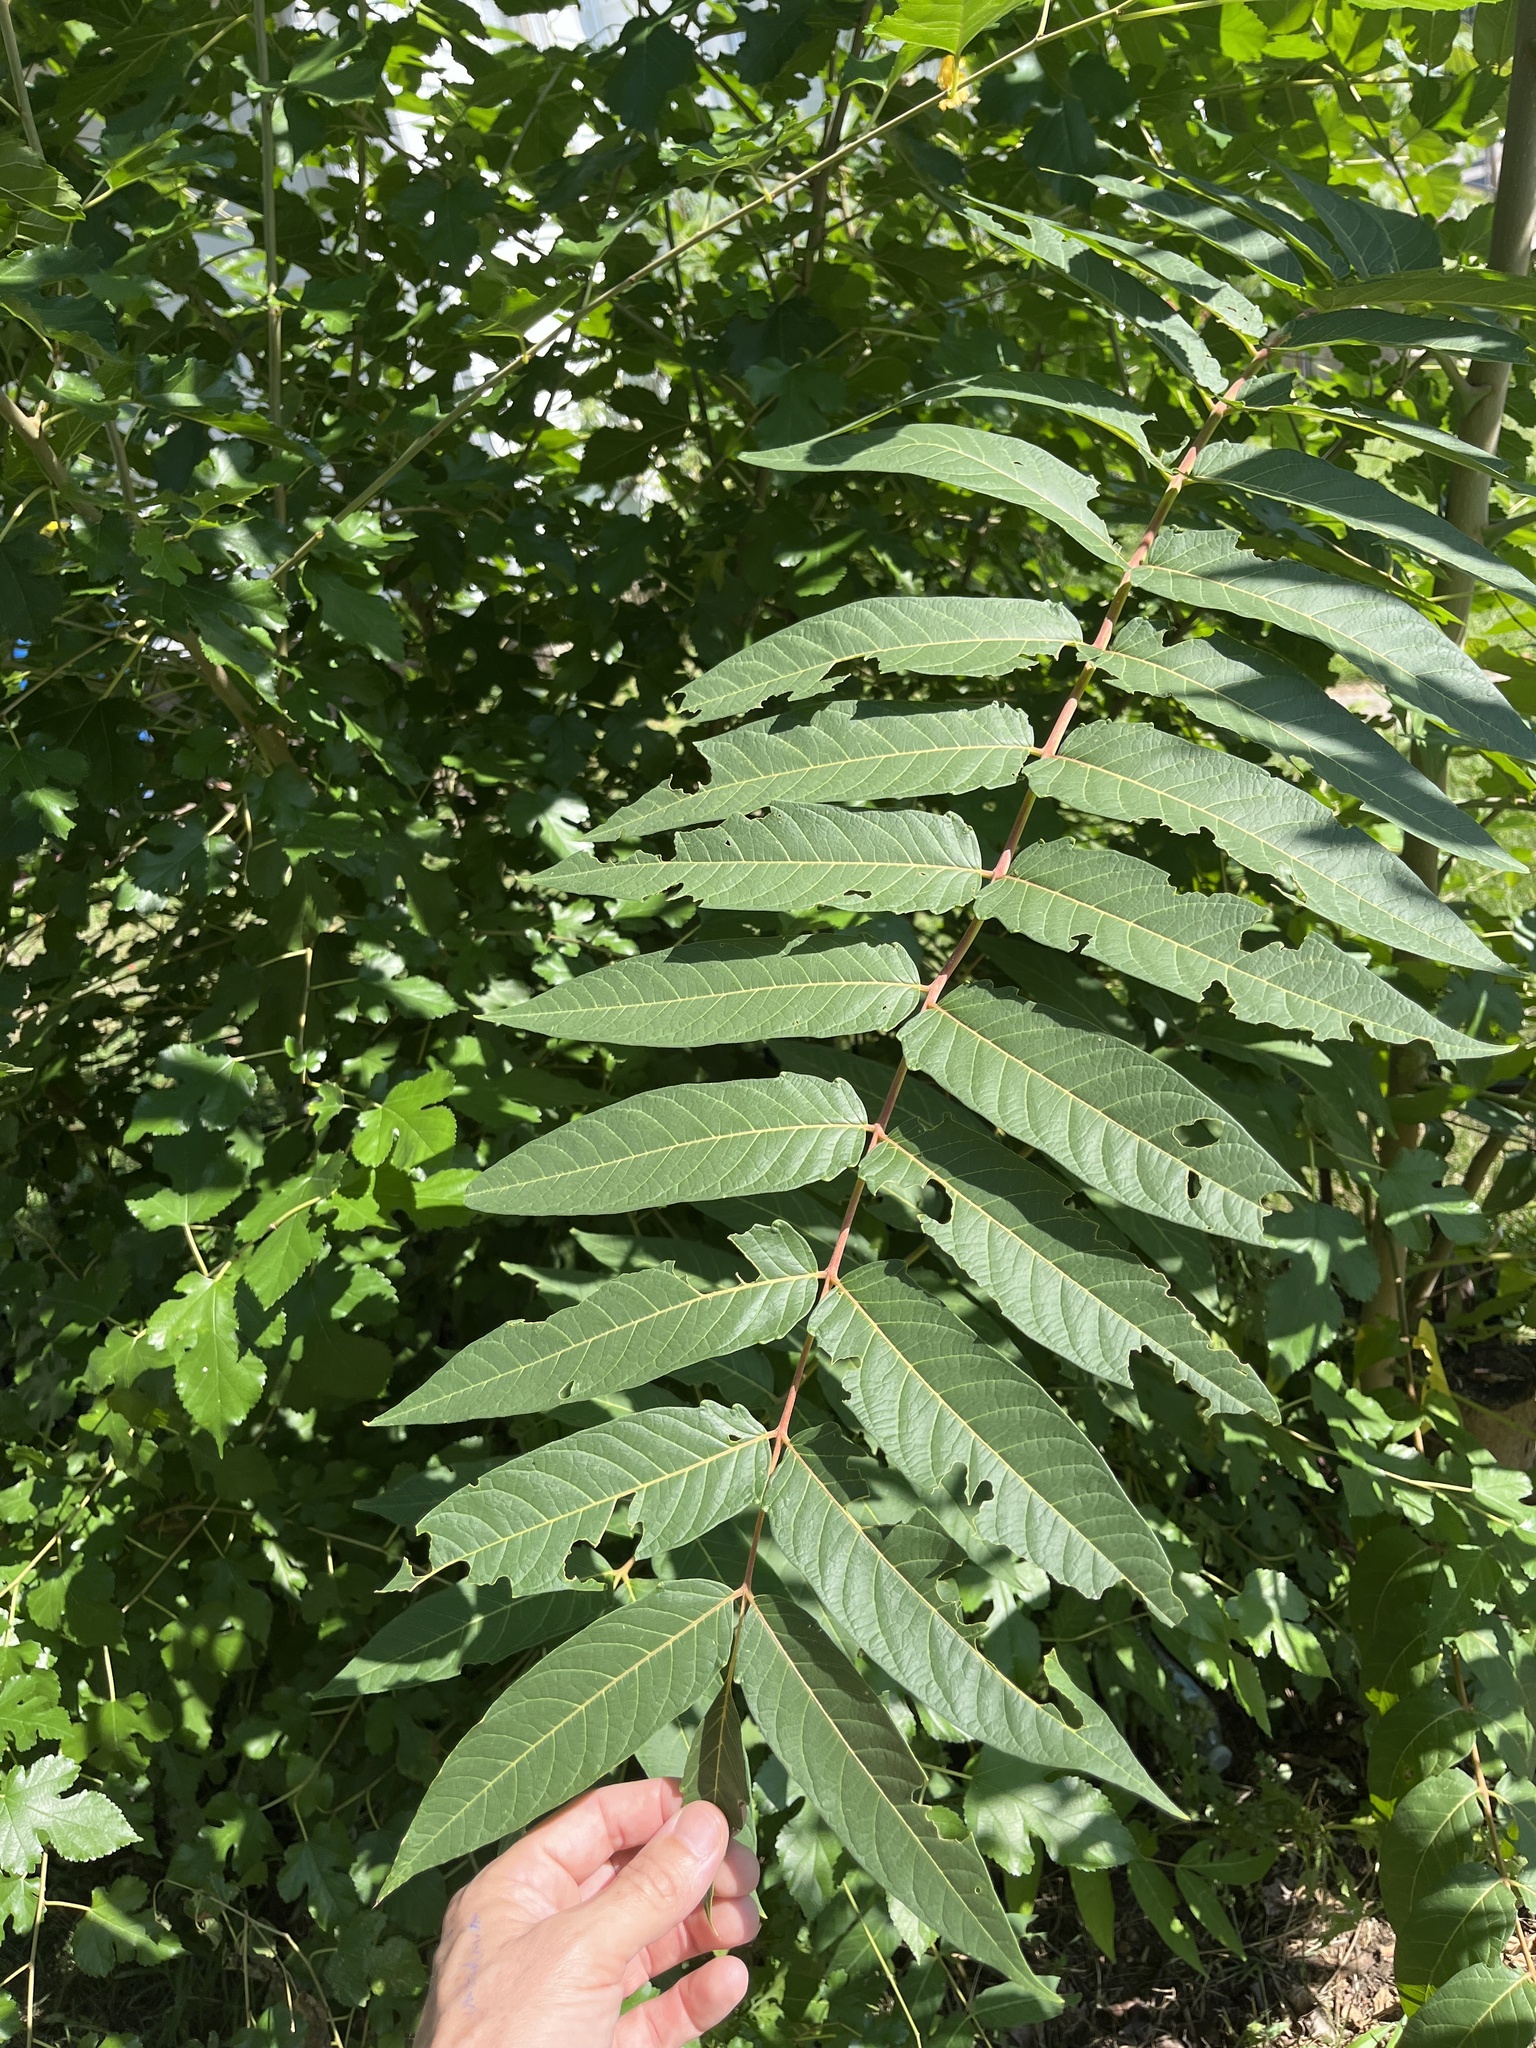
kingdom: Plantae
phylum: Tracheophyta
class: Magnoliopsida
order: Sapindales
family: Simaroubaceae
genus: Ailanthus
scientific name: Ailanthus altissima
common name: Tree-of-heaven
